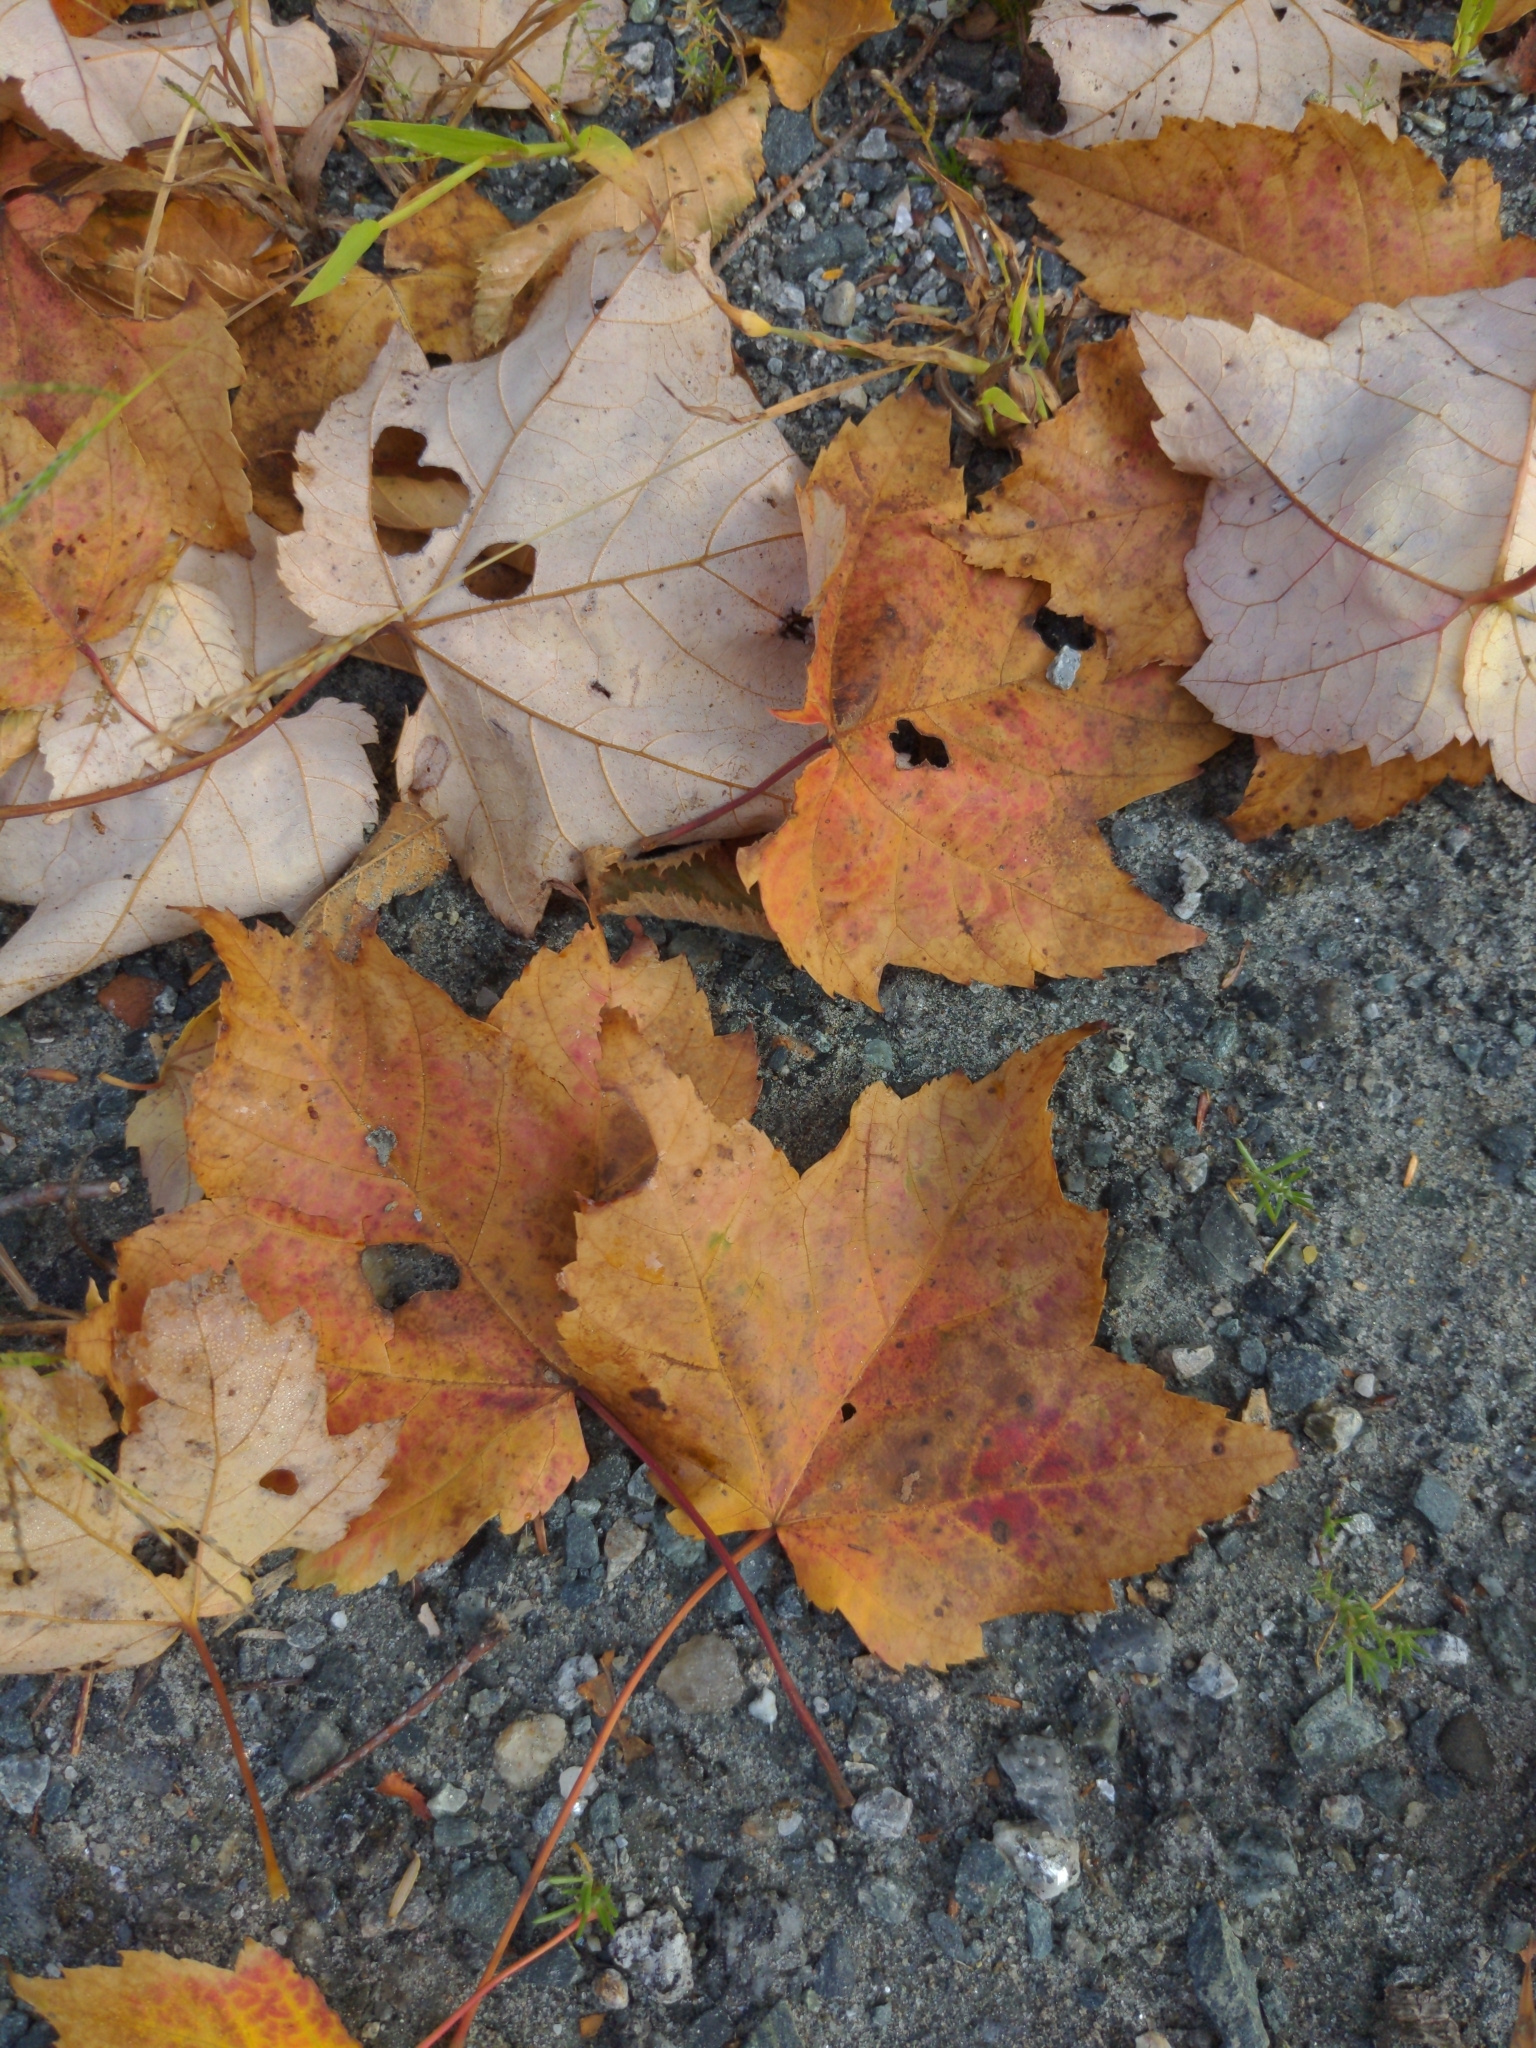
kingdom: Plantae
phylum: Tracheophyta
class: Magnoliopsida
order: Sapindales
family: Sapindaceae
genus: Acer
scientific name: Acer rubrum
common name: Red maple
